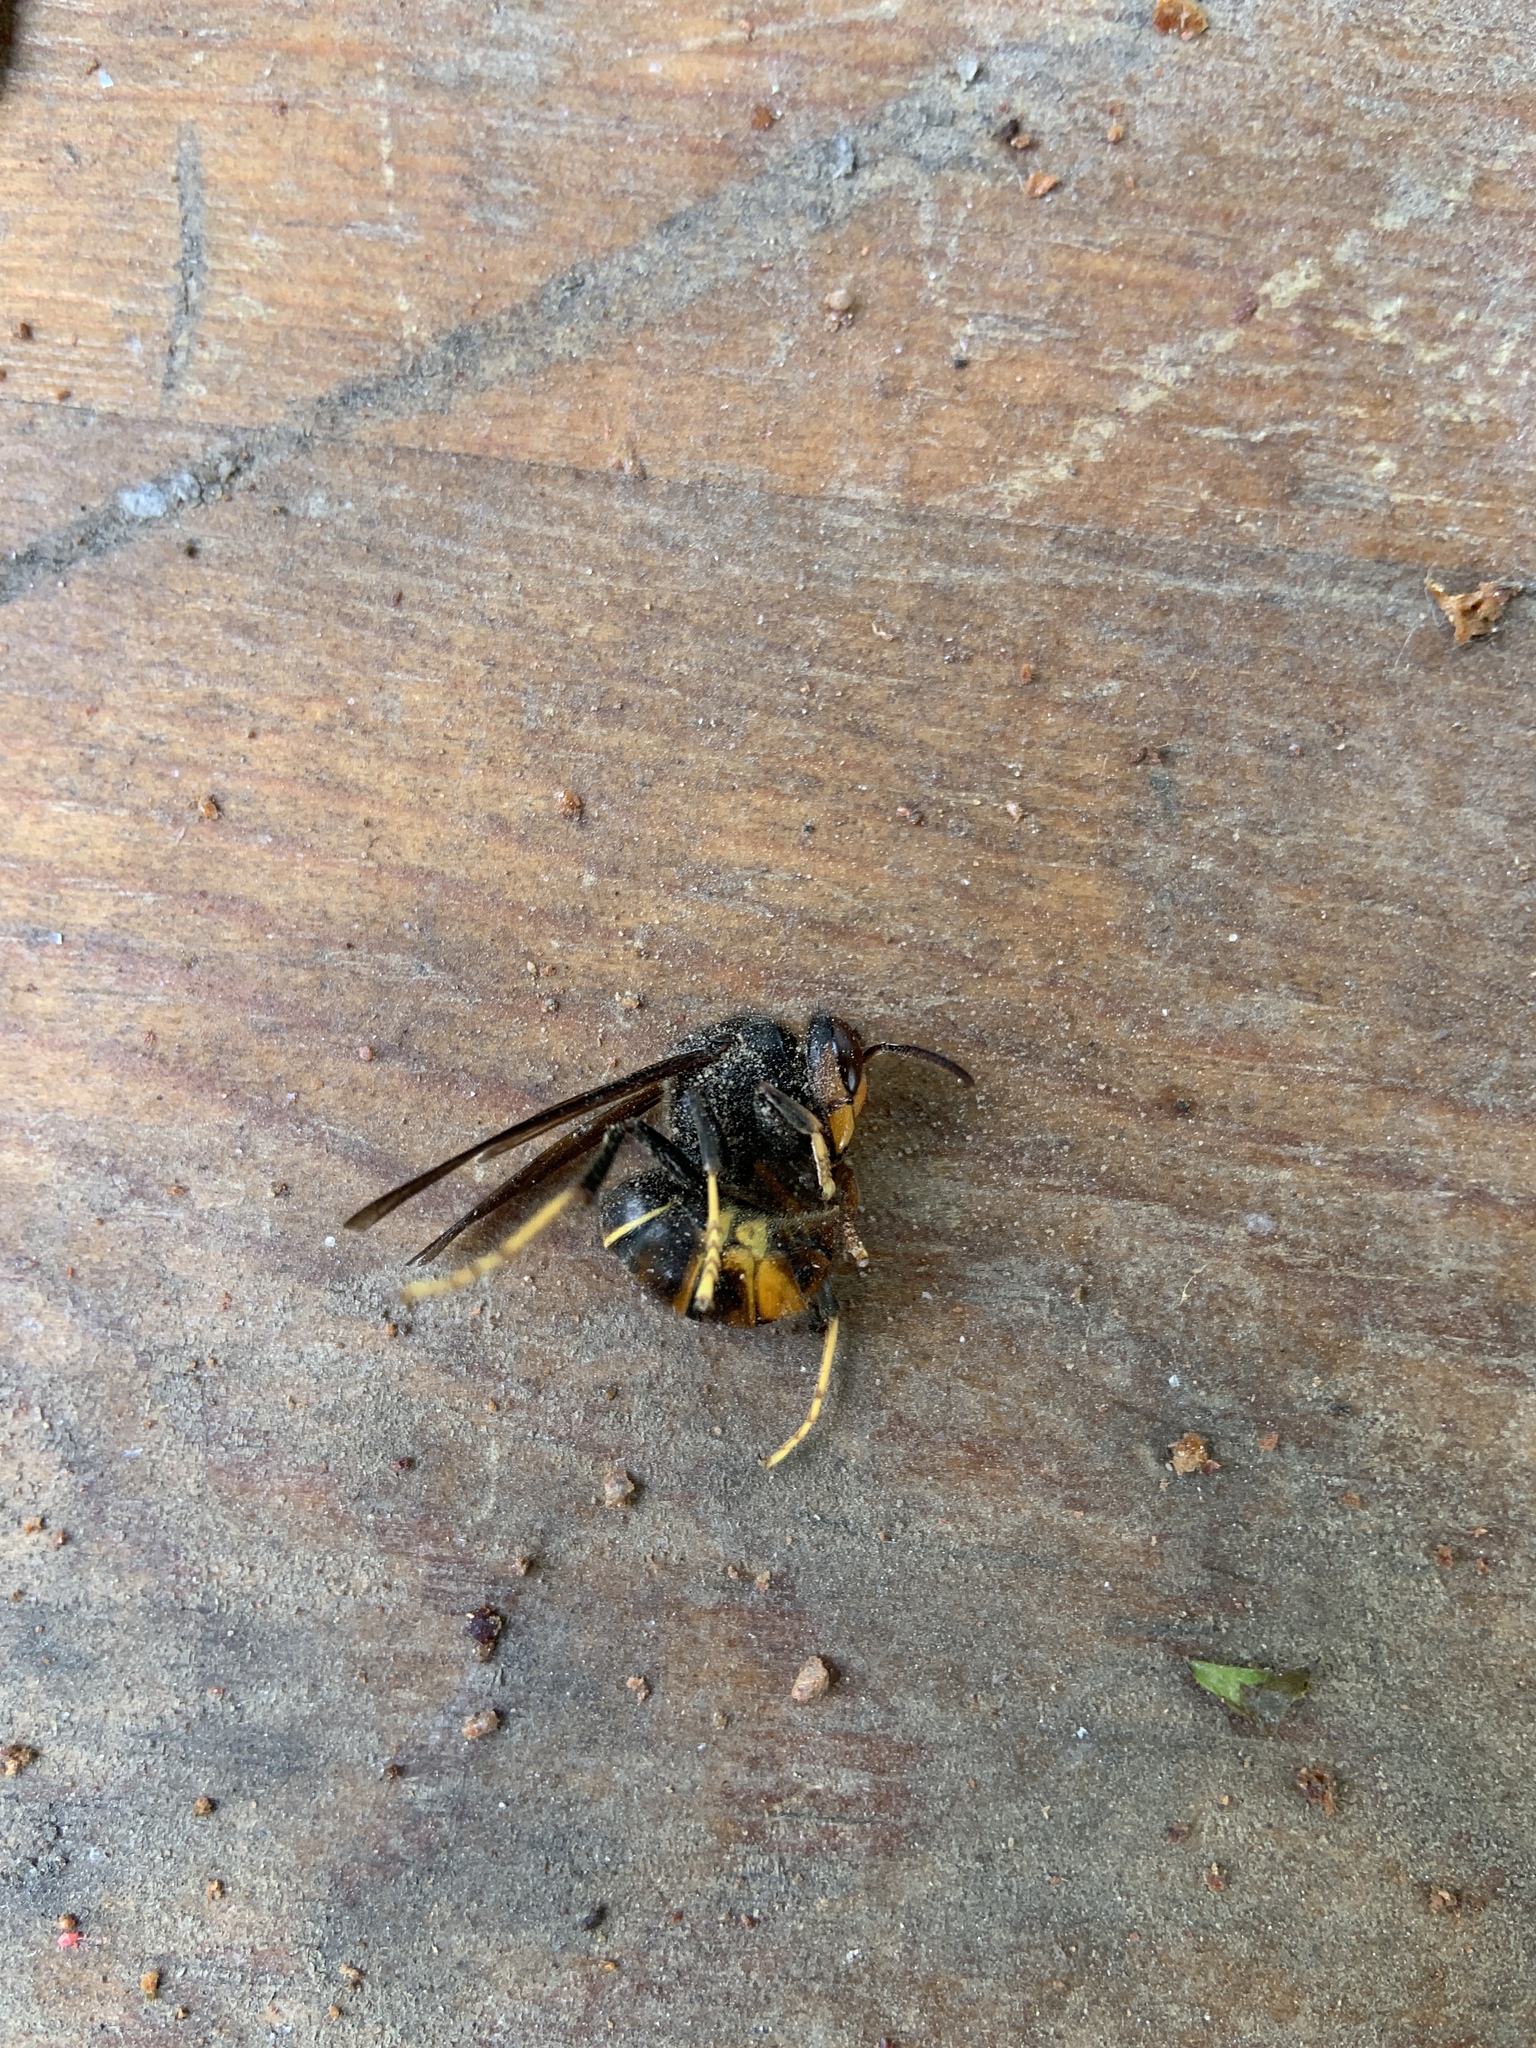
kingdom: Animalia
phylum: Arthropoda
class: Insecta
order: Hymenoptera
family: Vespidae
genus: Vespa
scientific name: Vespa velutina
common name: Asian hornet
